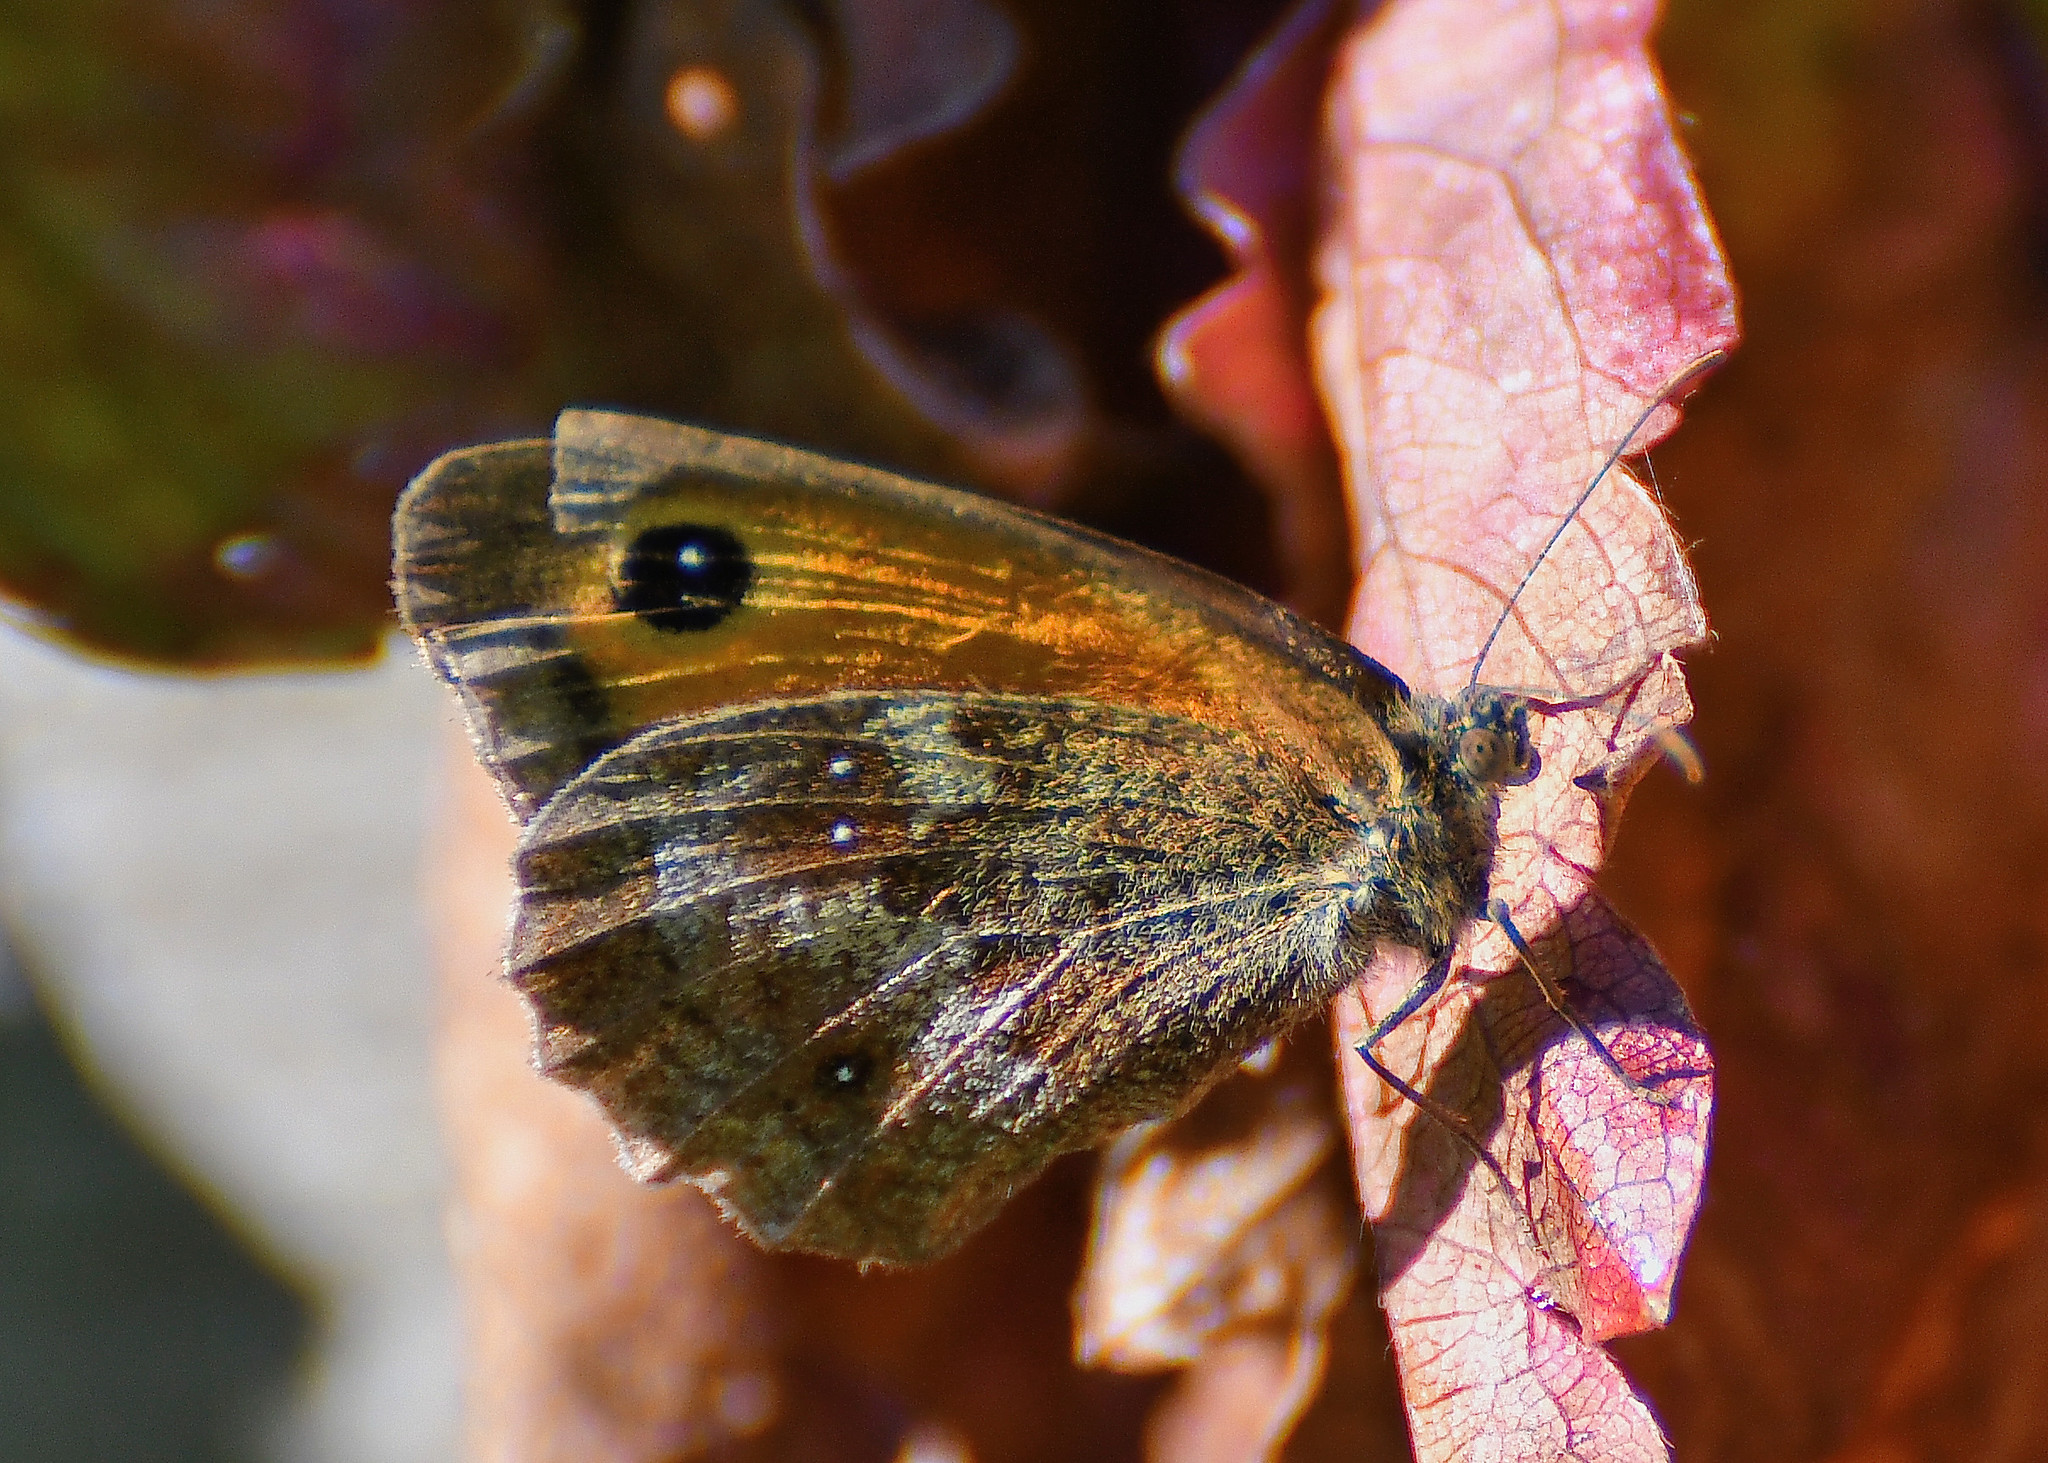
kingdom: Animalia
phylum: Arthropoda
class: Insecta
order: Lepidoptera
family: Nymphalidae
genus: Pyronia
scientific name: Pyronia tithonus
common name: Gatekeeper
